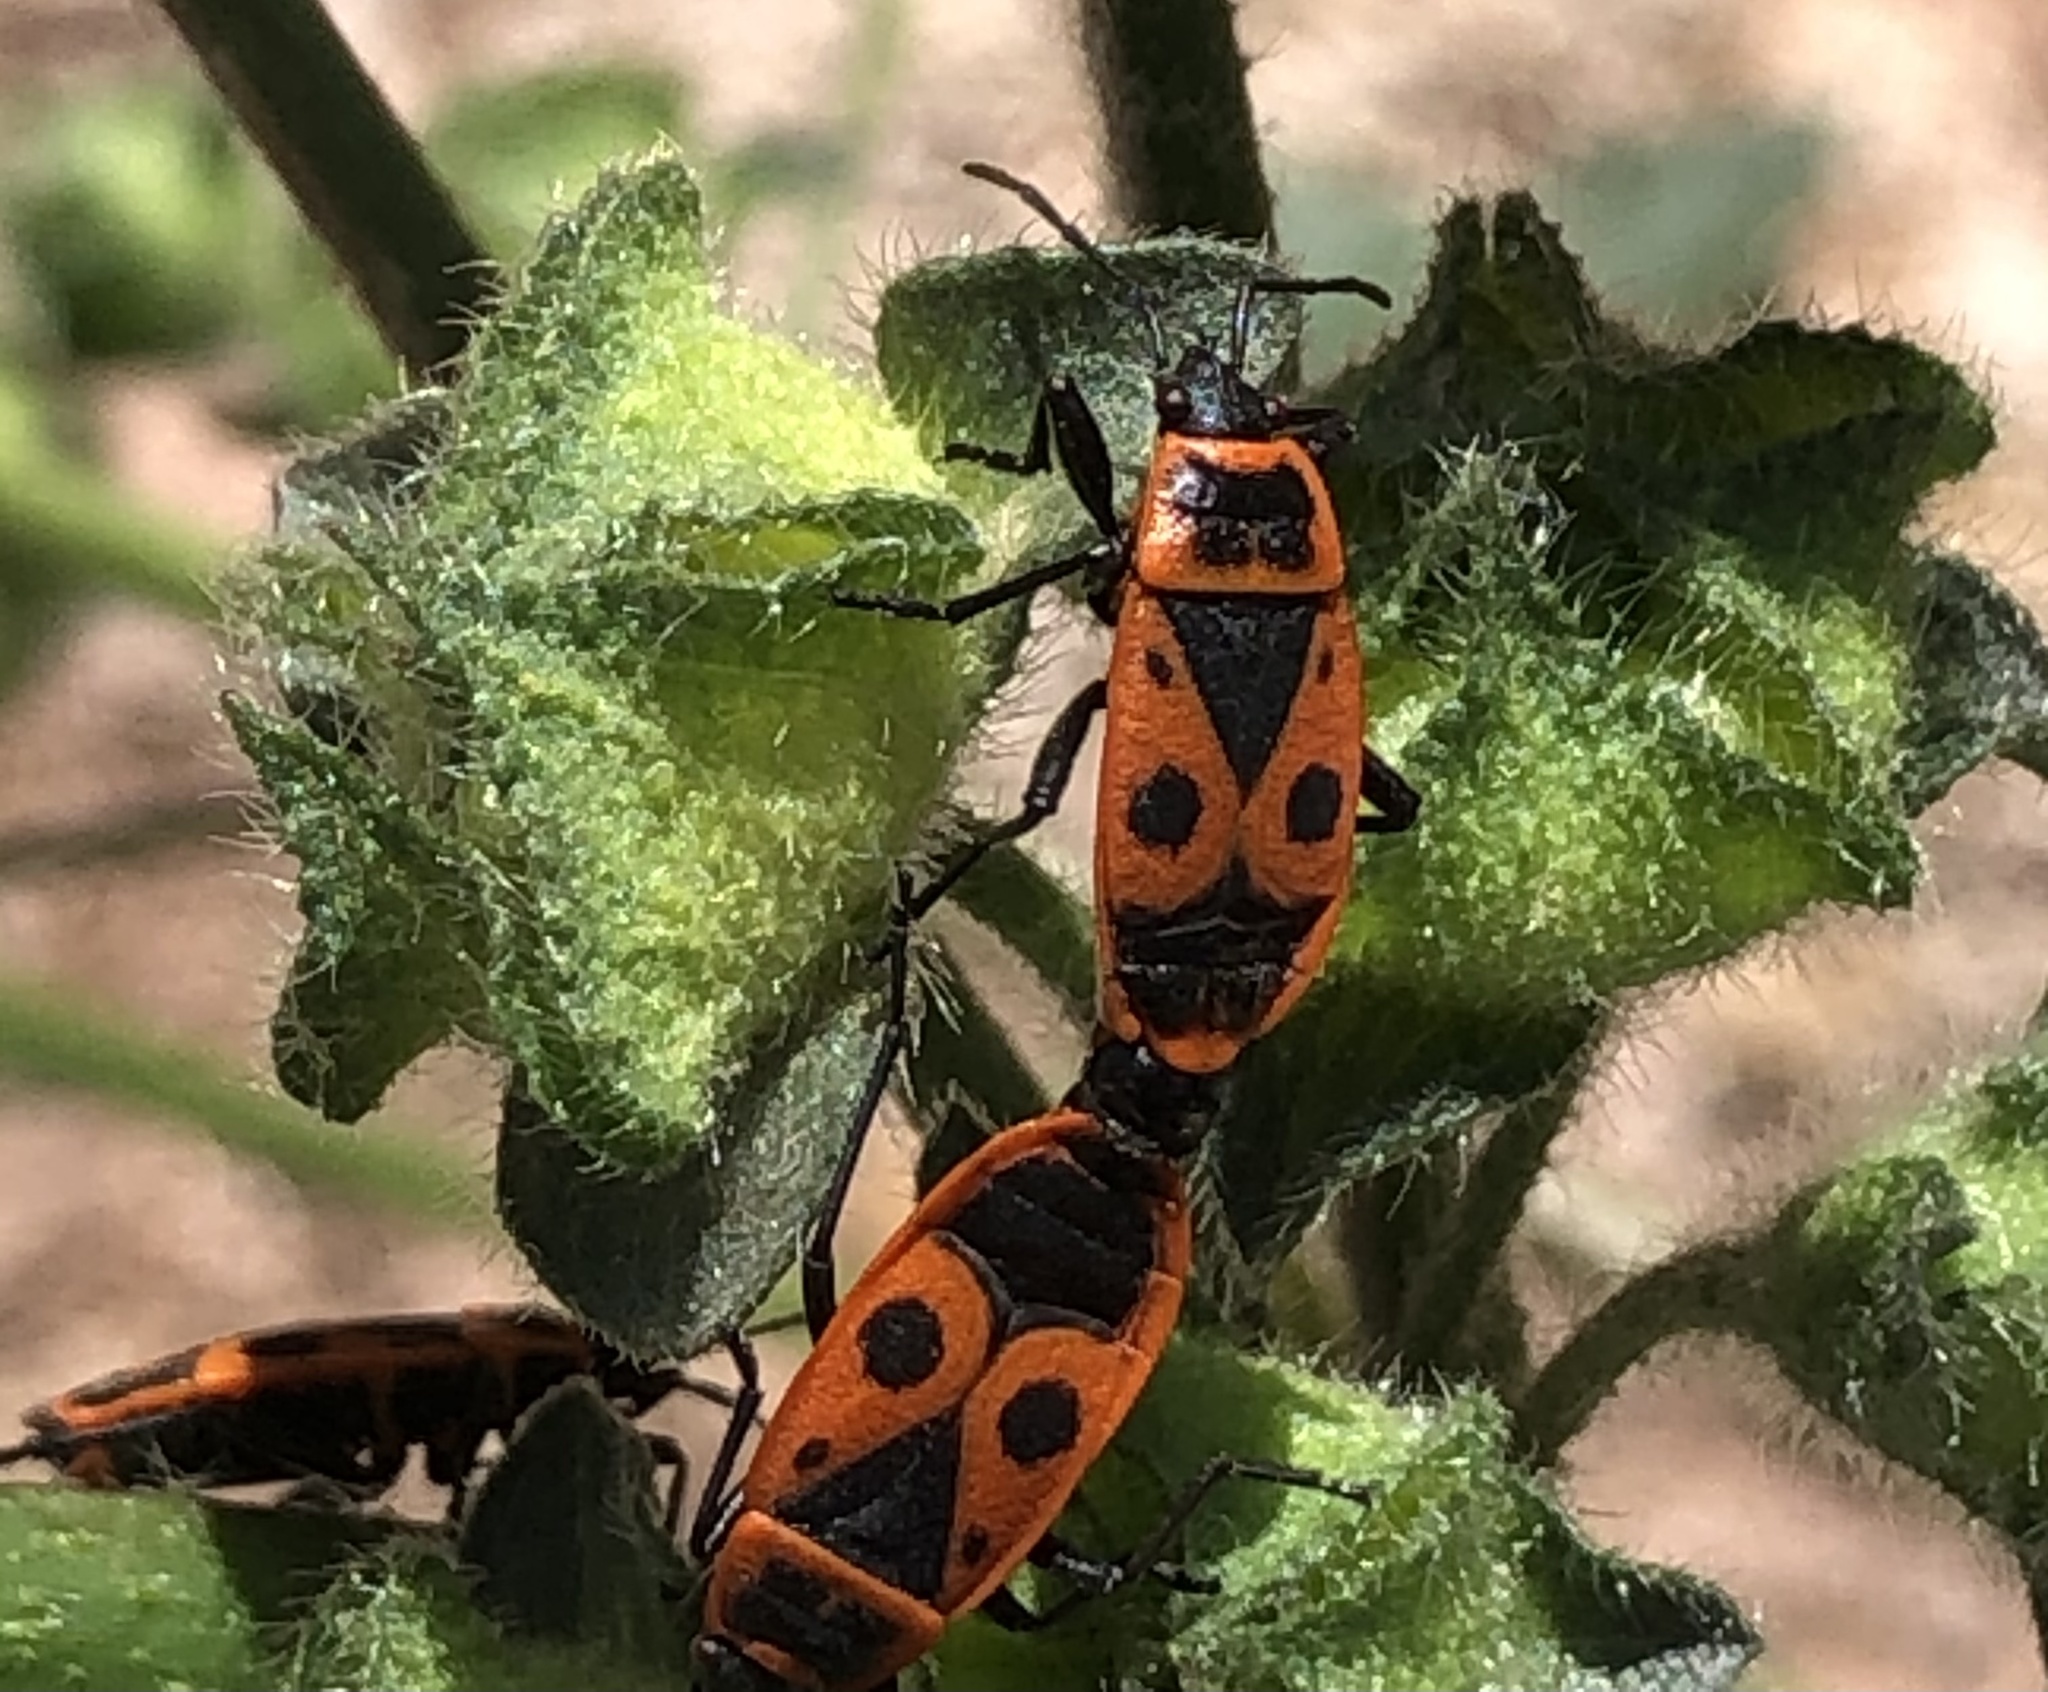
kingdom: Animalia
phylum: Arthropoda
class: Insecta
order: Hemiptera
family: Pyrrhocoridae
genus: Pyrrhocoris
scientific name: Pyrrhocoris apterus
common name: Firebug
